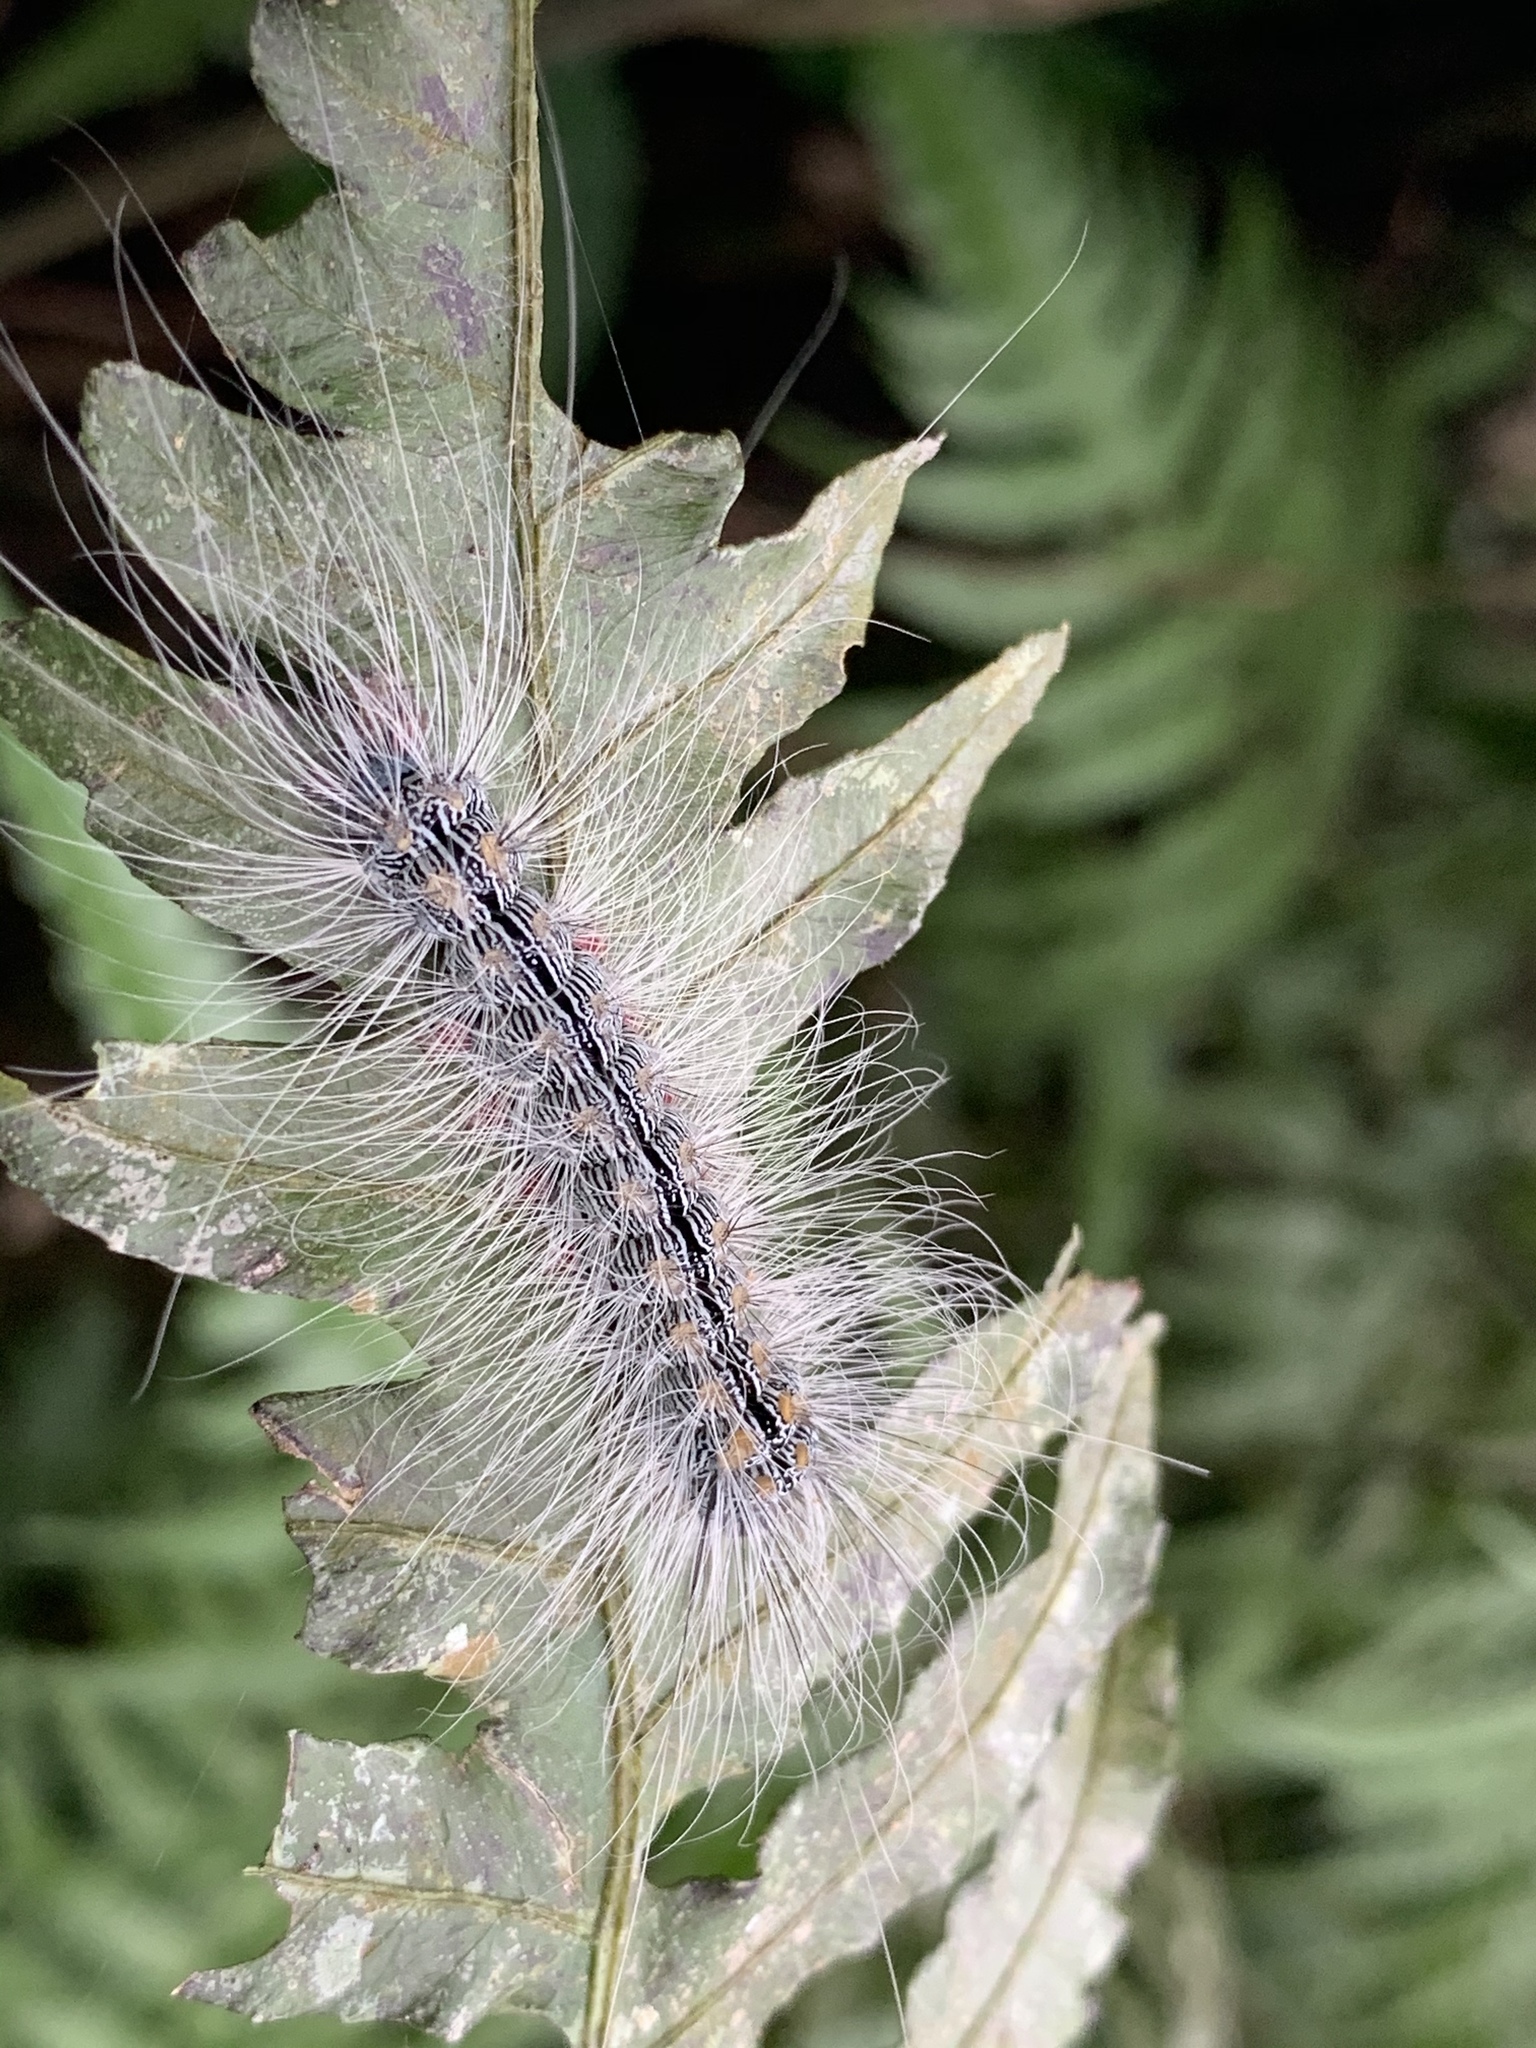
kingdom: Animalia
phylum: Arthropoda
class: Insecta
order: Lepidoptera
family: Erebidae
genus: Chrysaeglia
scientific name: Chrysaeglia magnifica
